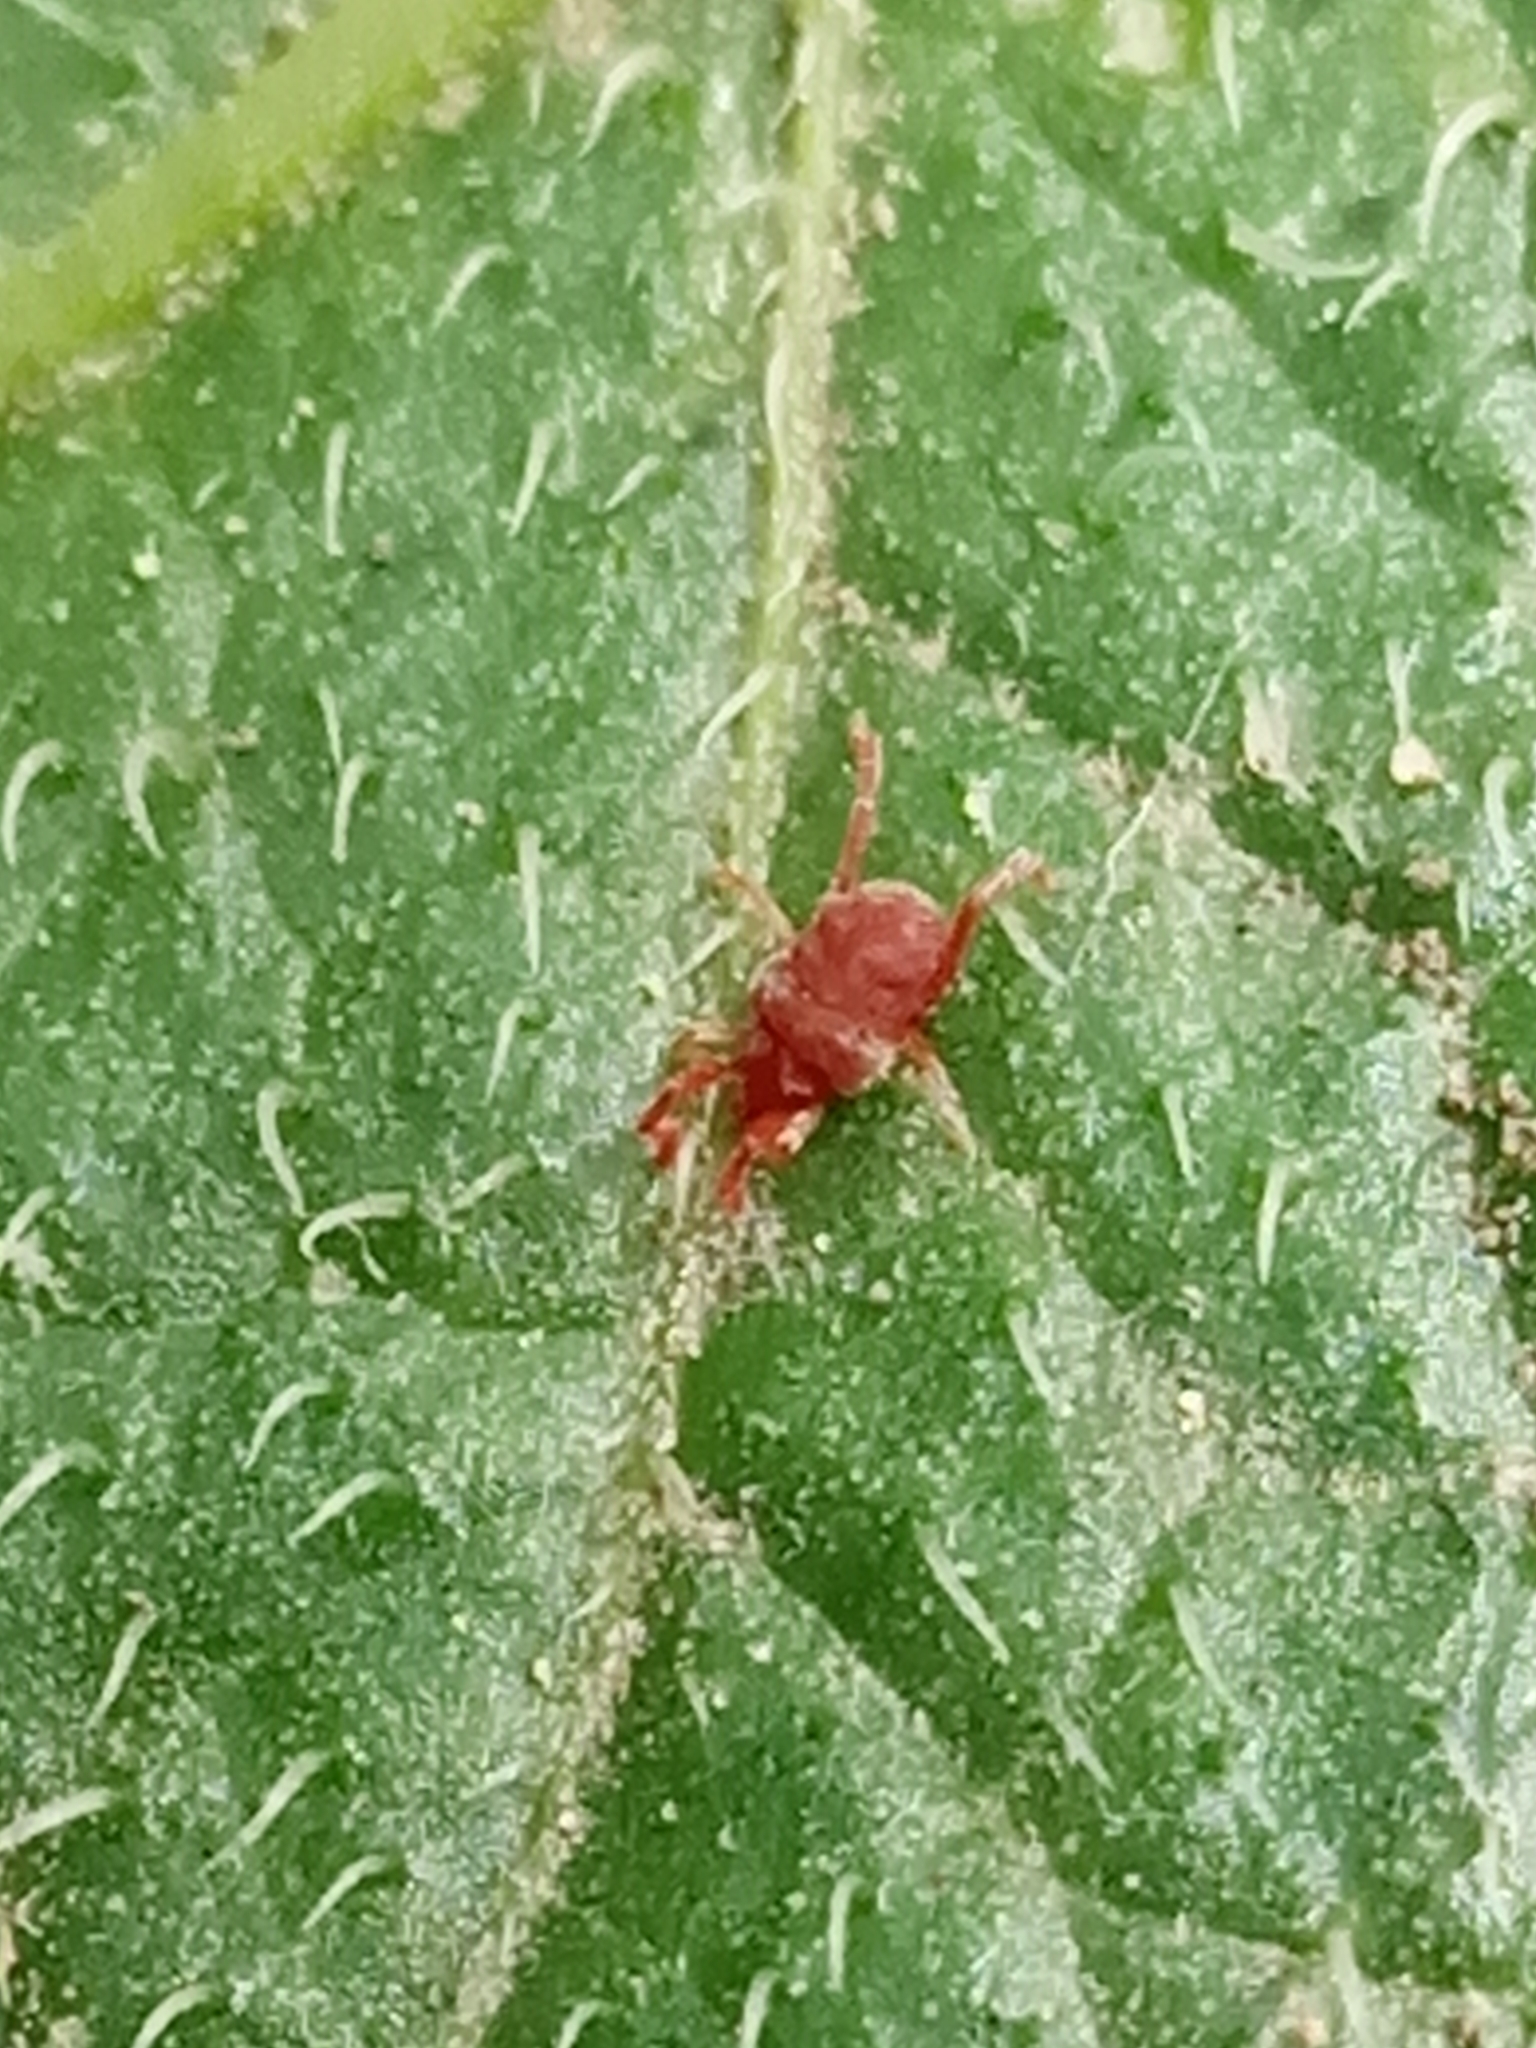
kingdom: Animalia
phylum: Arthropoda
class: Arachnida
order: Trombidiformes
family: Trombidiidae
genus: Allothrombium
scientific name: Allothrombium
